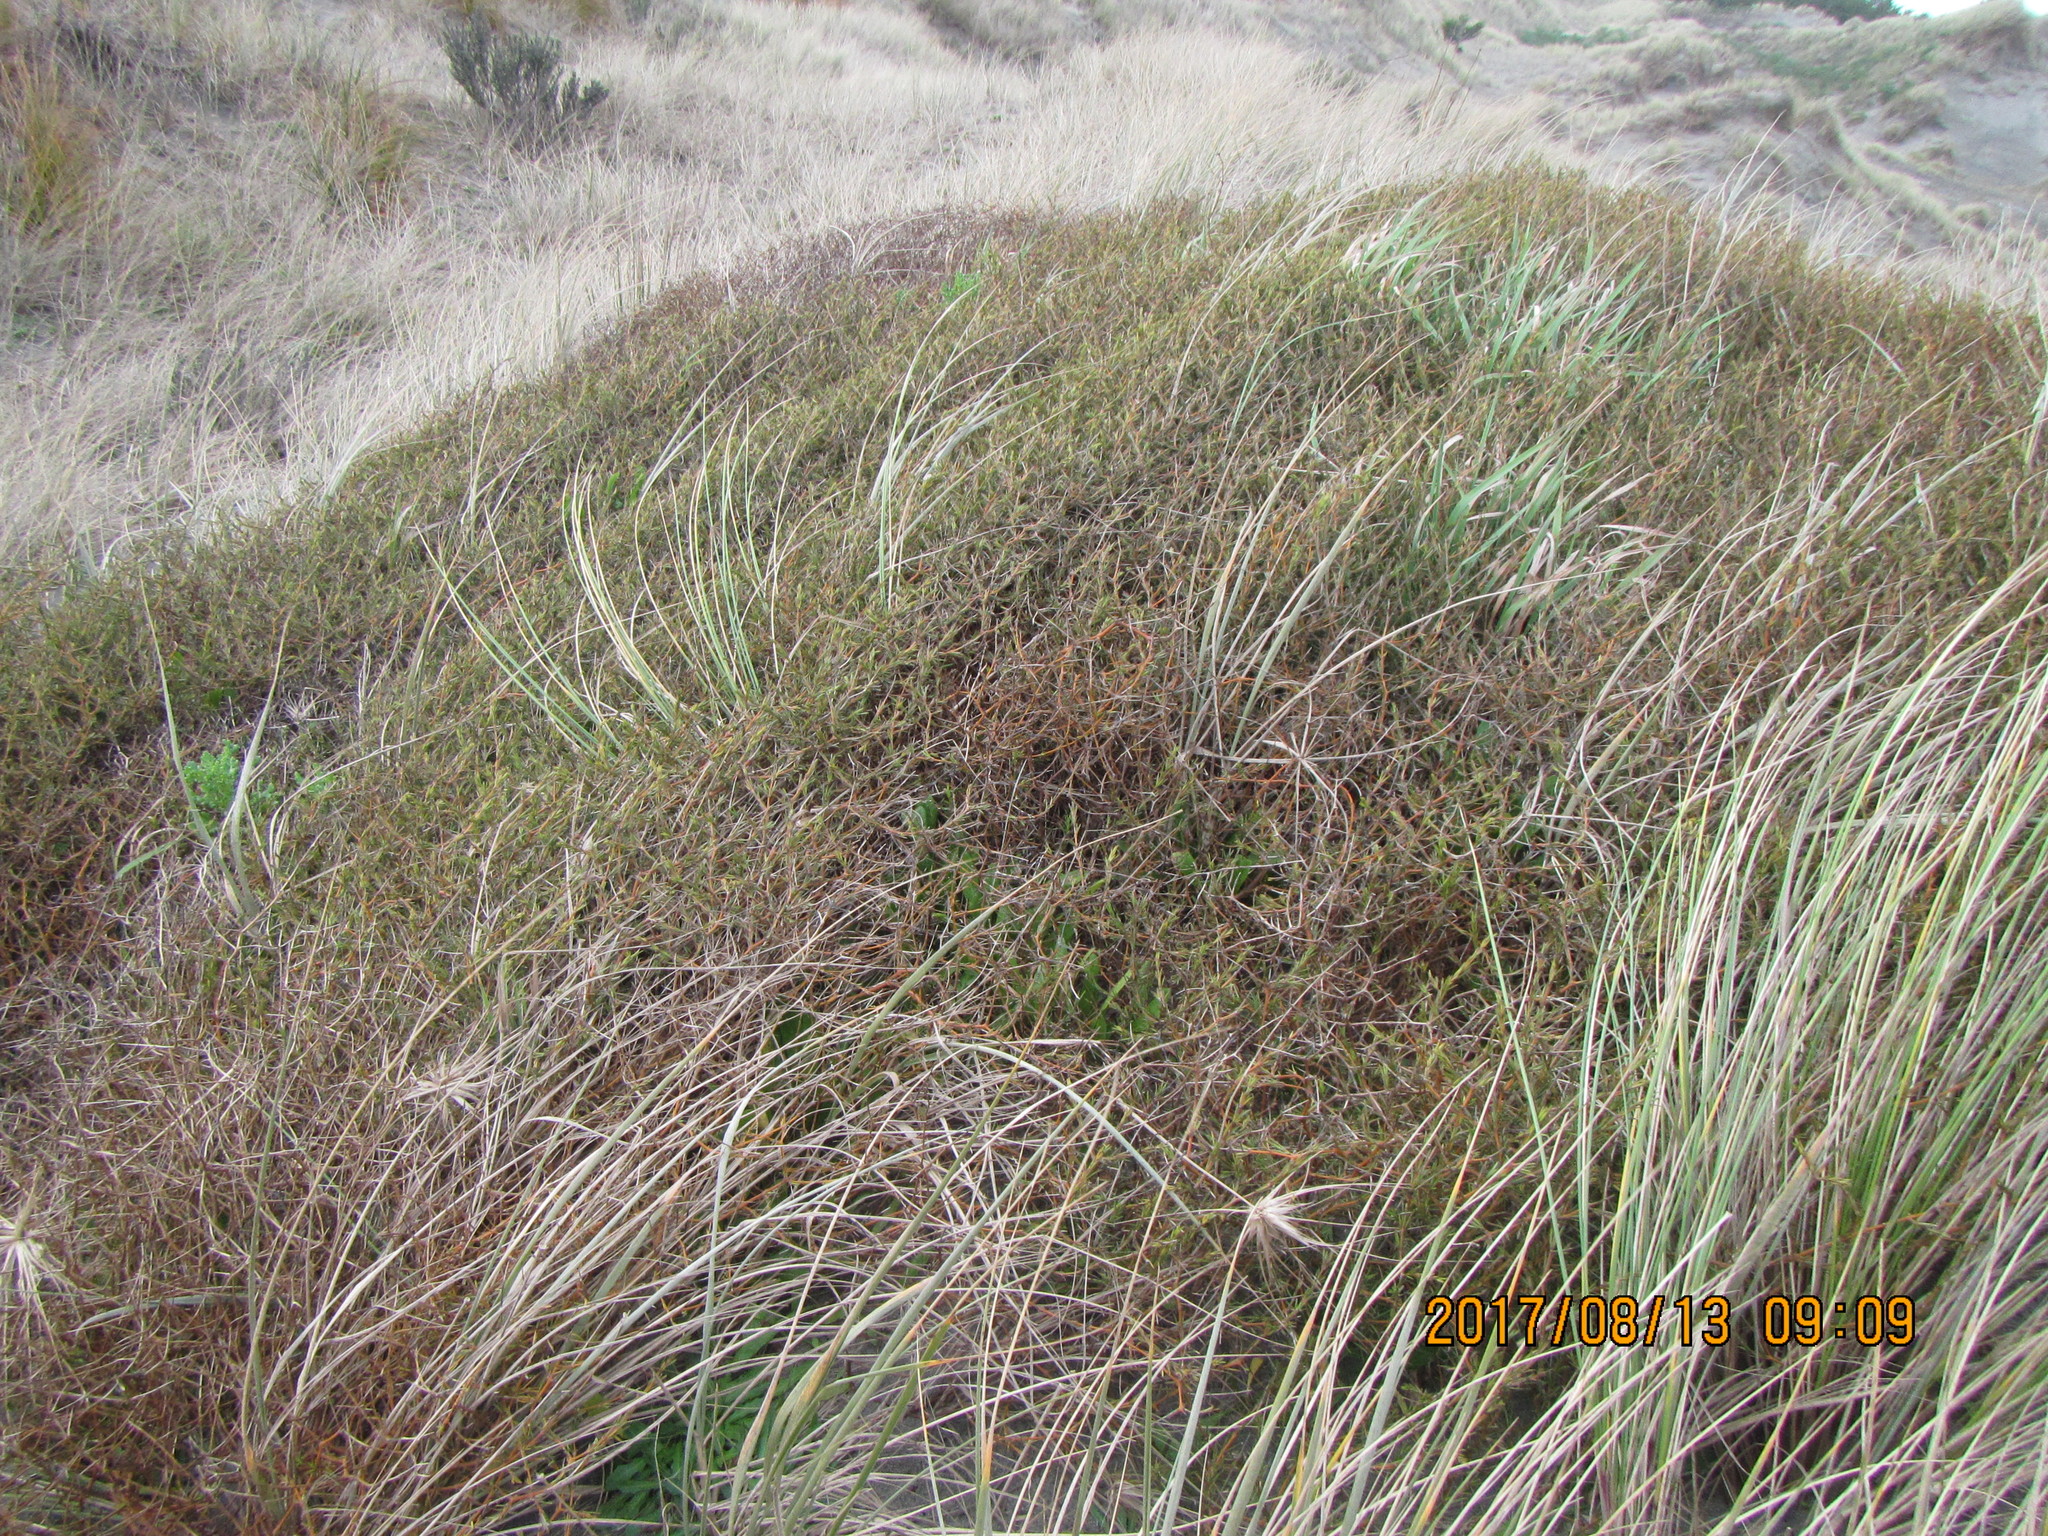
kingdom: Plantae
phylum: Tracheophyta
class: Magnoliopsida
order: Gentianales
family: Rubiaceae
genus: Coprosma
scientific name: Coprosma acerosa
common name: Sand coprosma
